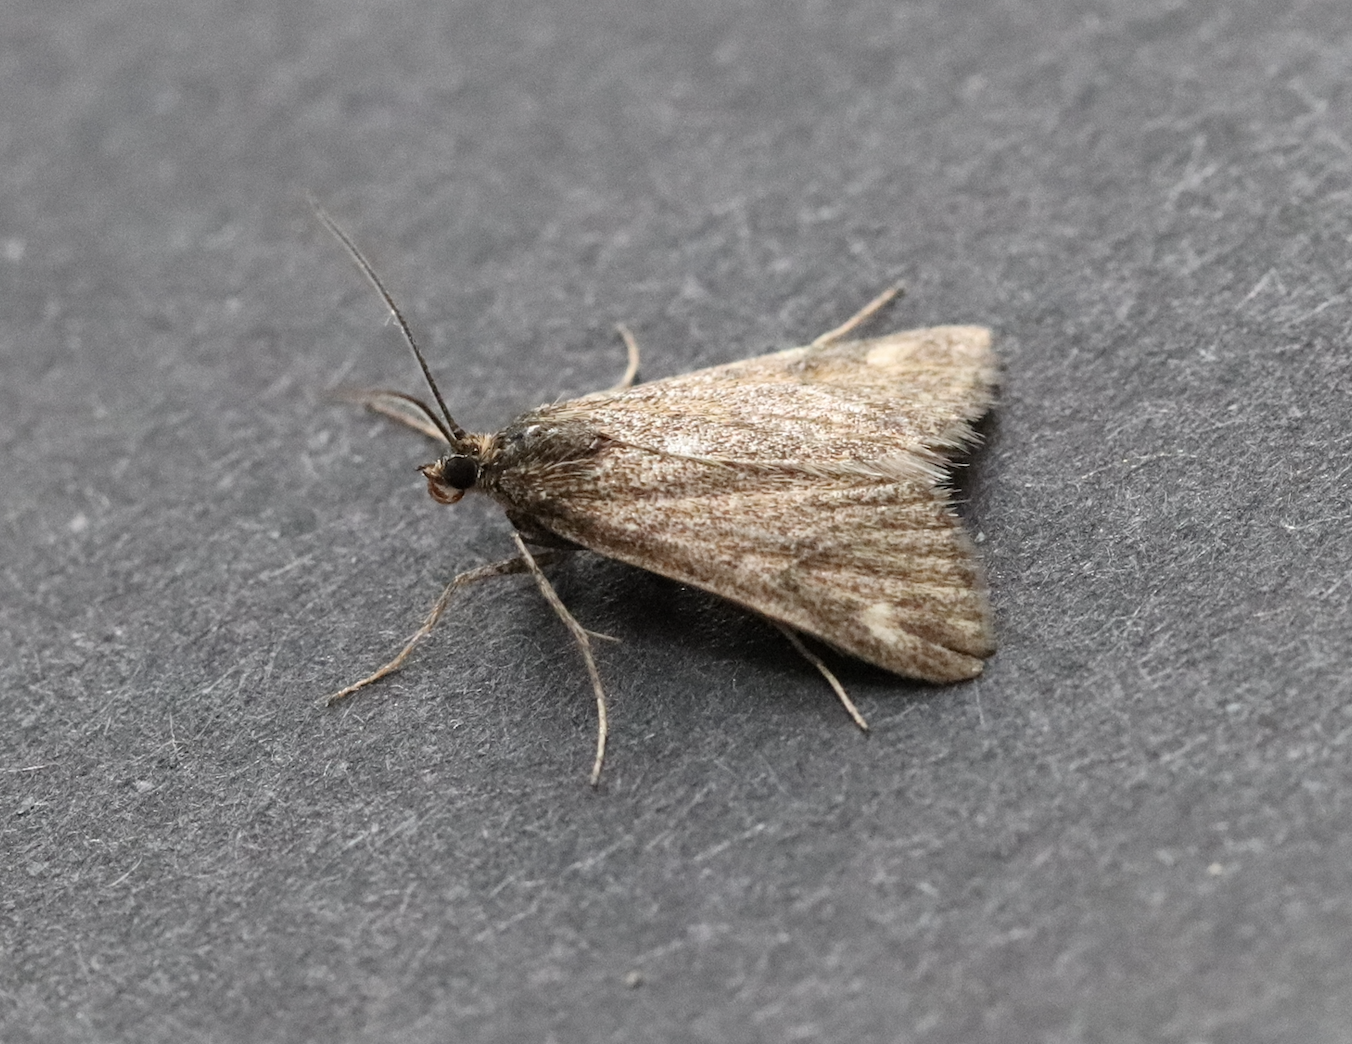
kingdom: Animalia
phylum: Arthropoda
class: Insecta
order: Lepidoptera
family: Crambidae
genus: Pyrausta
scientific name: Pyrausta despicata
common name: Straw-barred pearl
